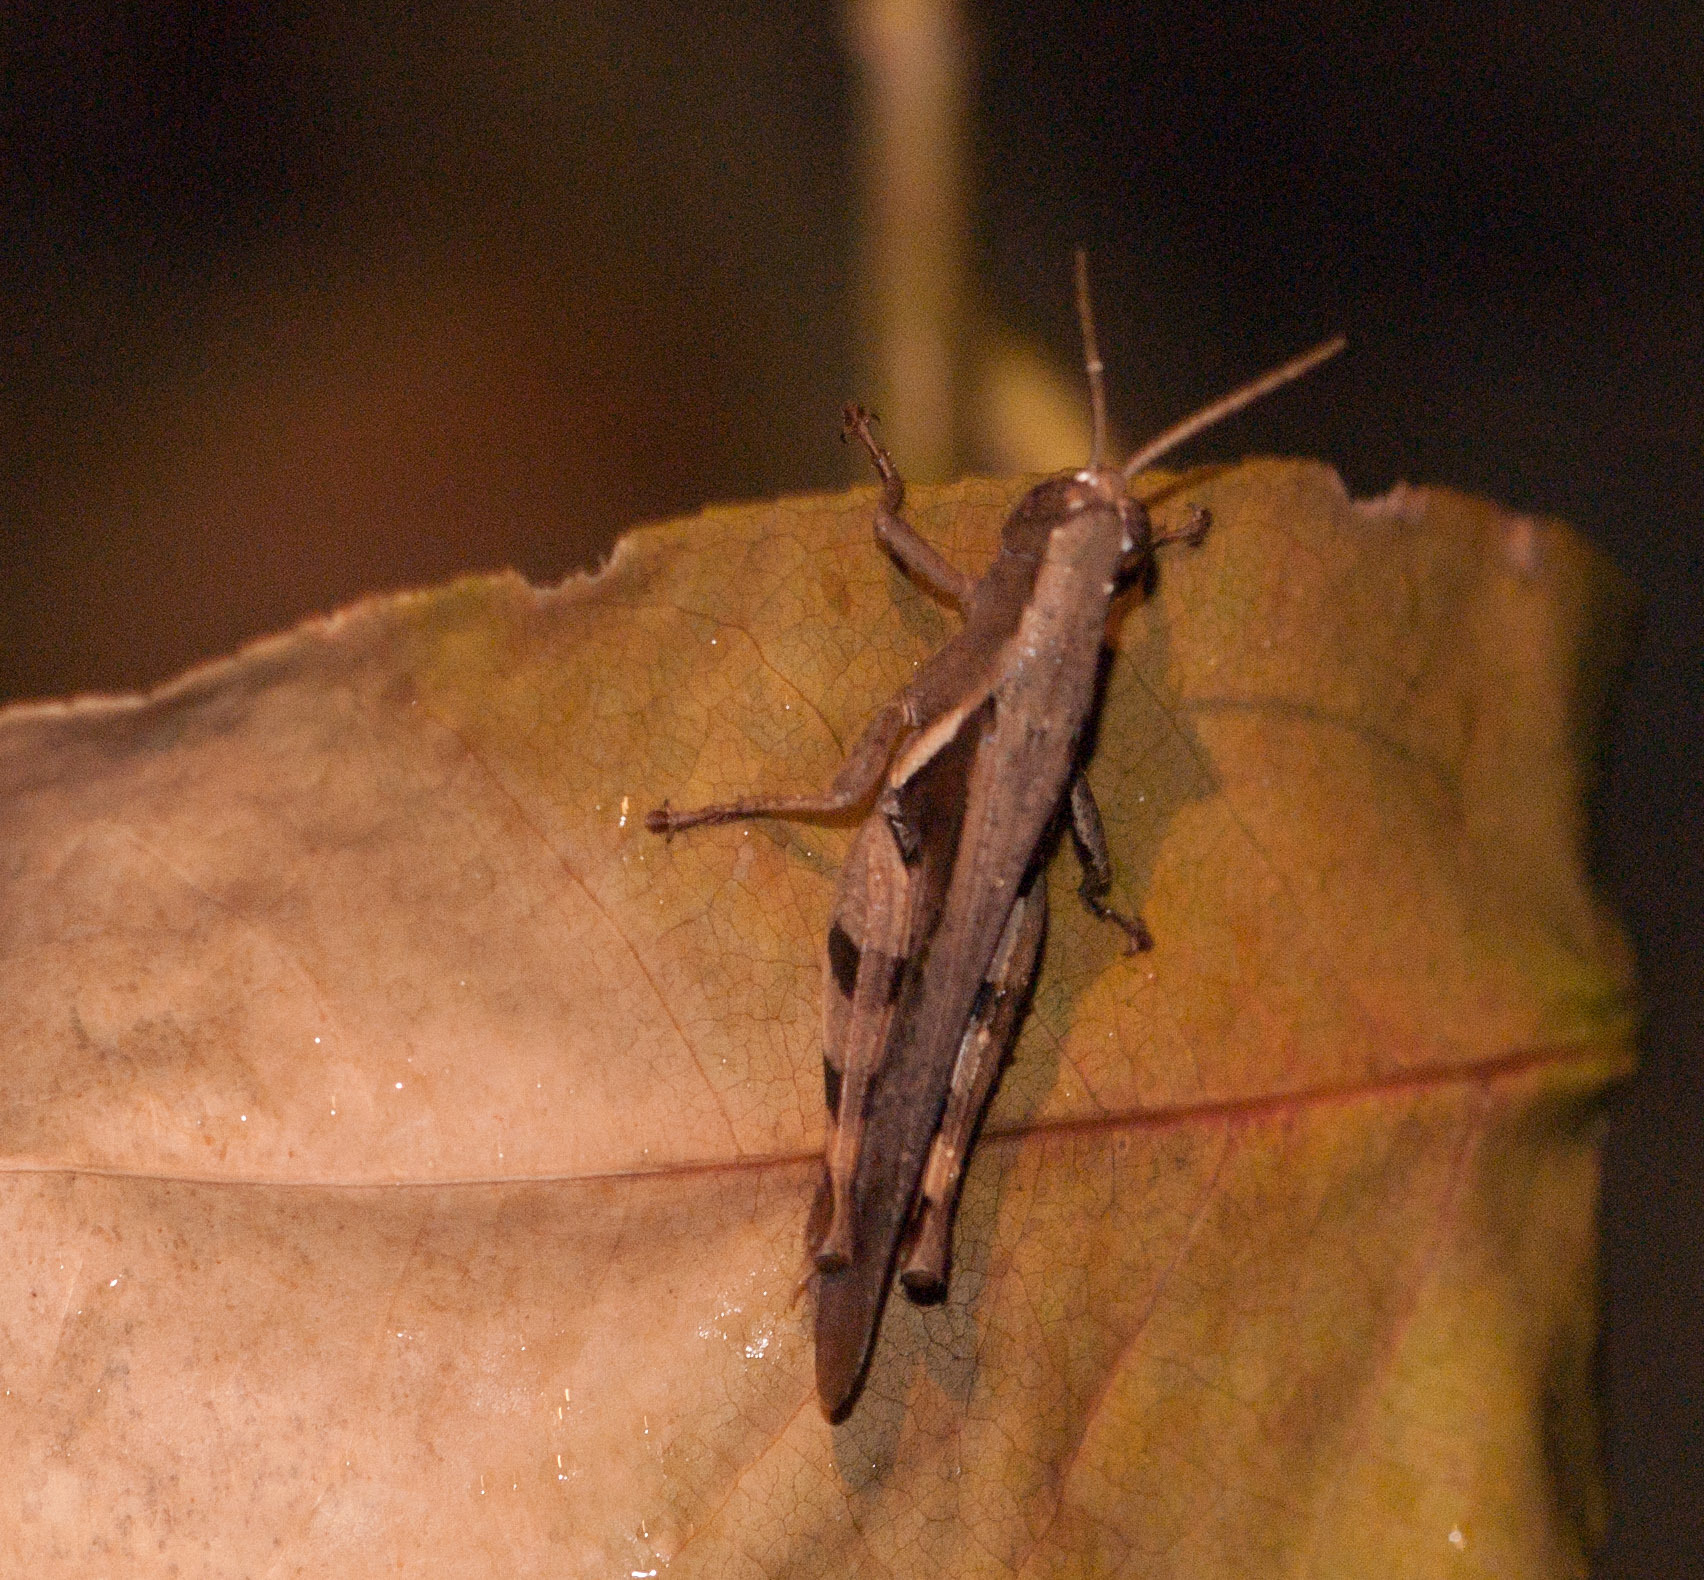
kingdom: Animalia
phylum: Arthropoda
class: Insecta
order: Orthoptera
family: Acrididae
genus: Stenocatantops
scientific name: Stenocatantops angustifrons
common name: Common tropical sharptail
